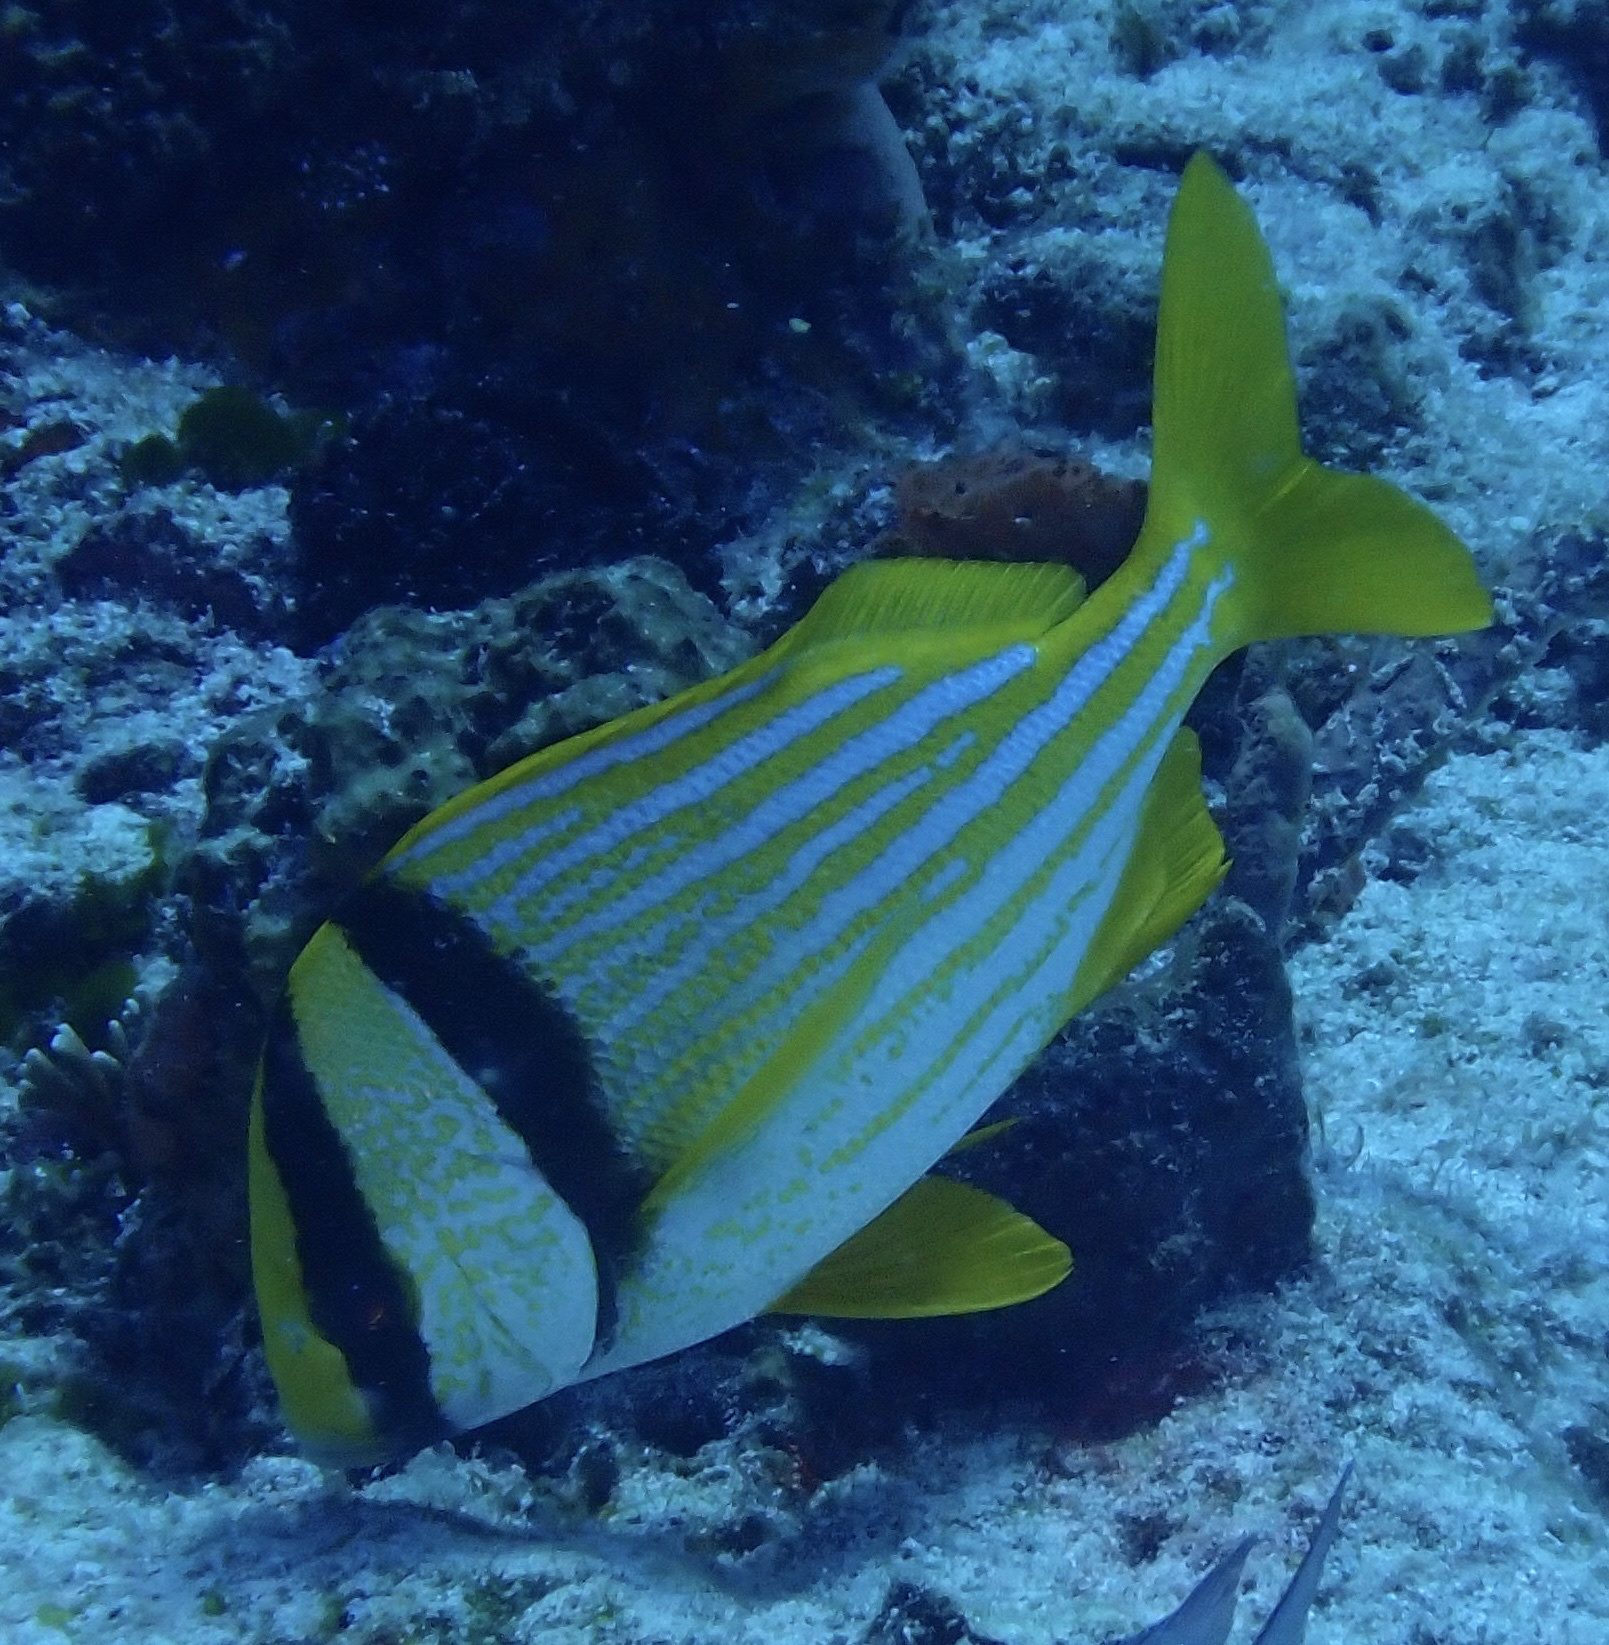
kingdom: Animalia
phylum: Chordata
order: Perciformes
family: Haemulidae
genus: Anisotremus
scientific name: Anisotremus virginicus
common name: Porkfish
